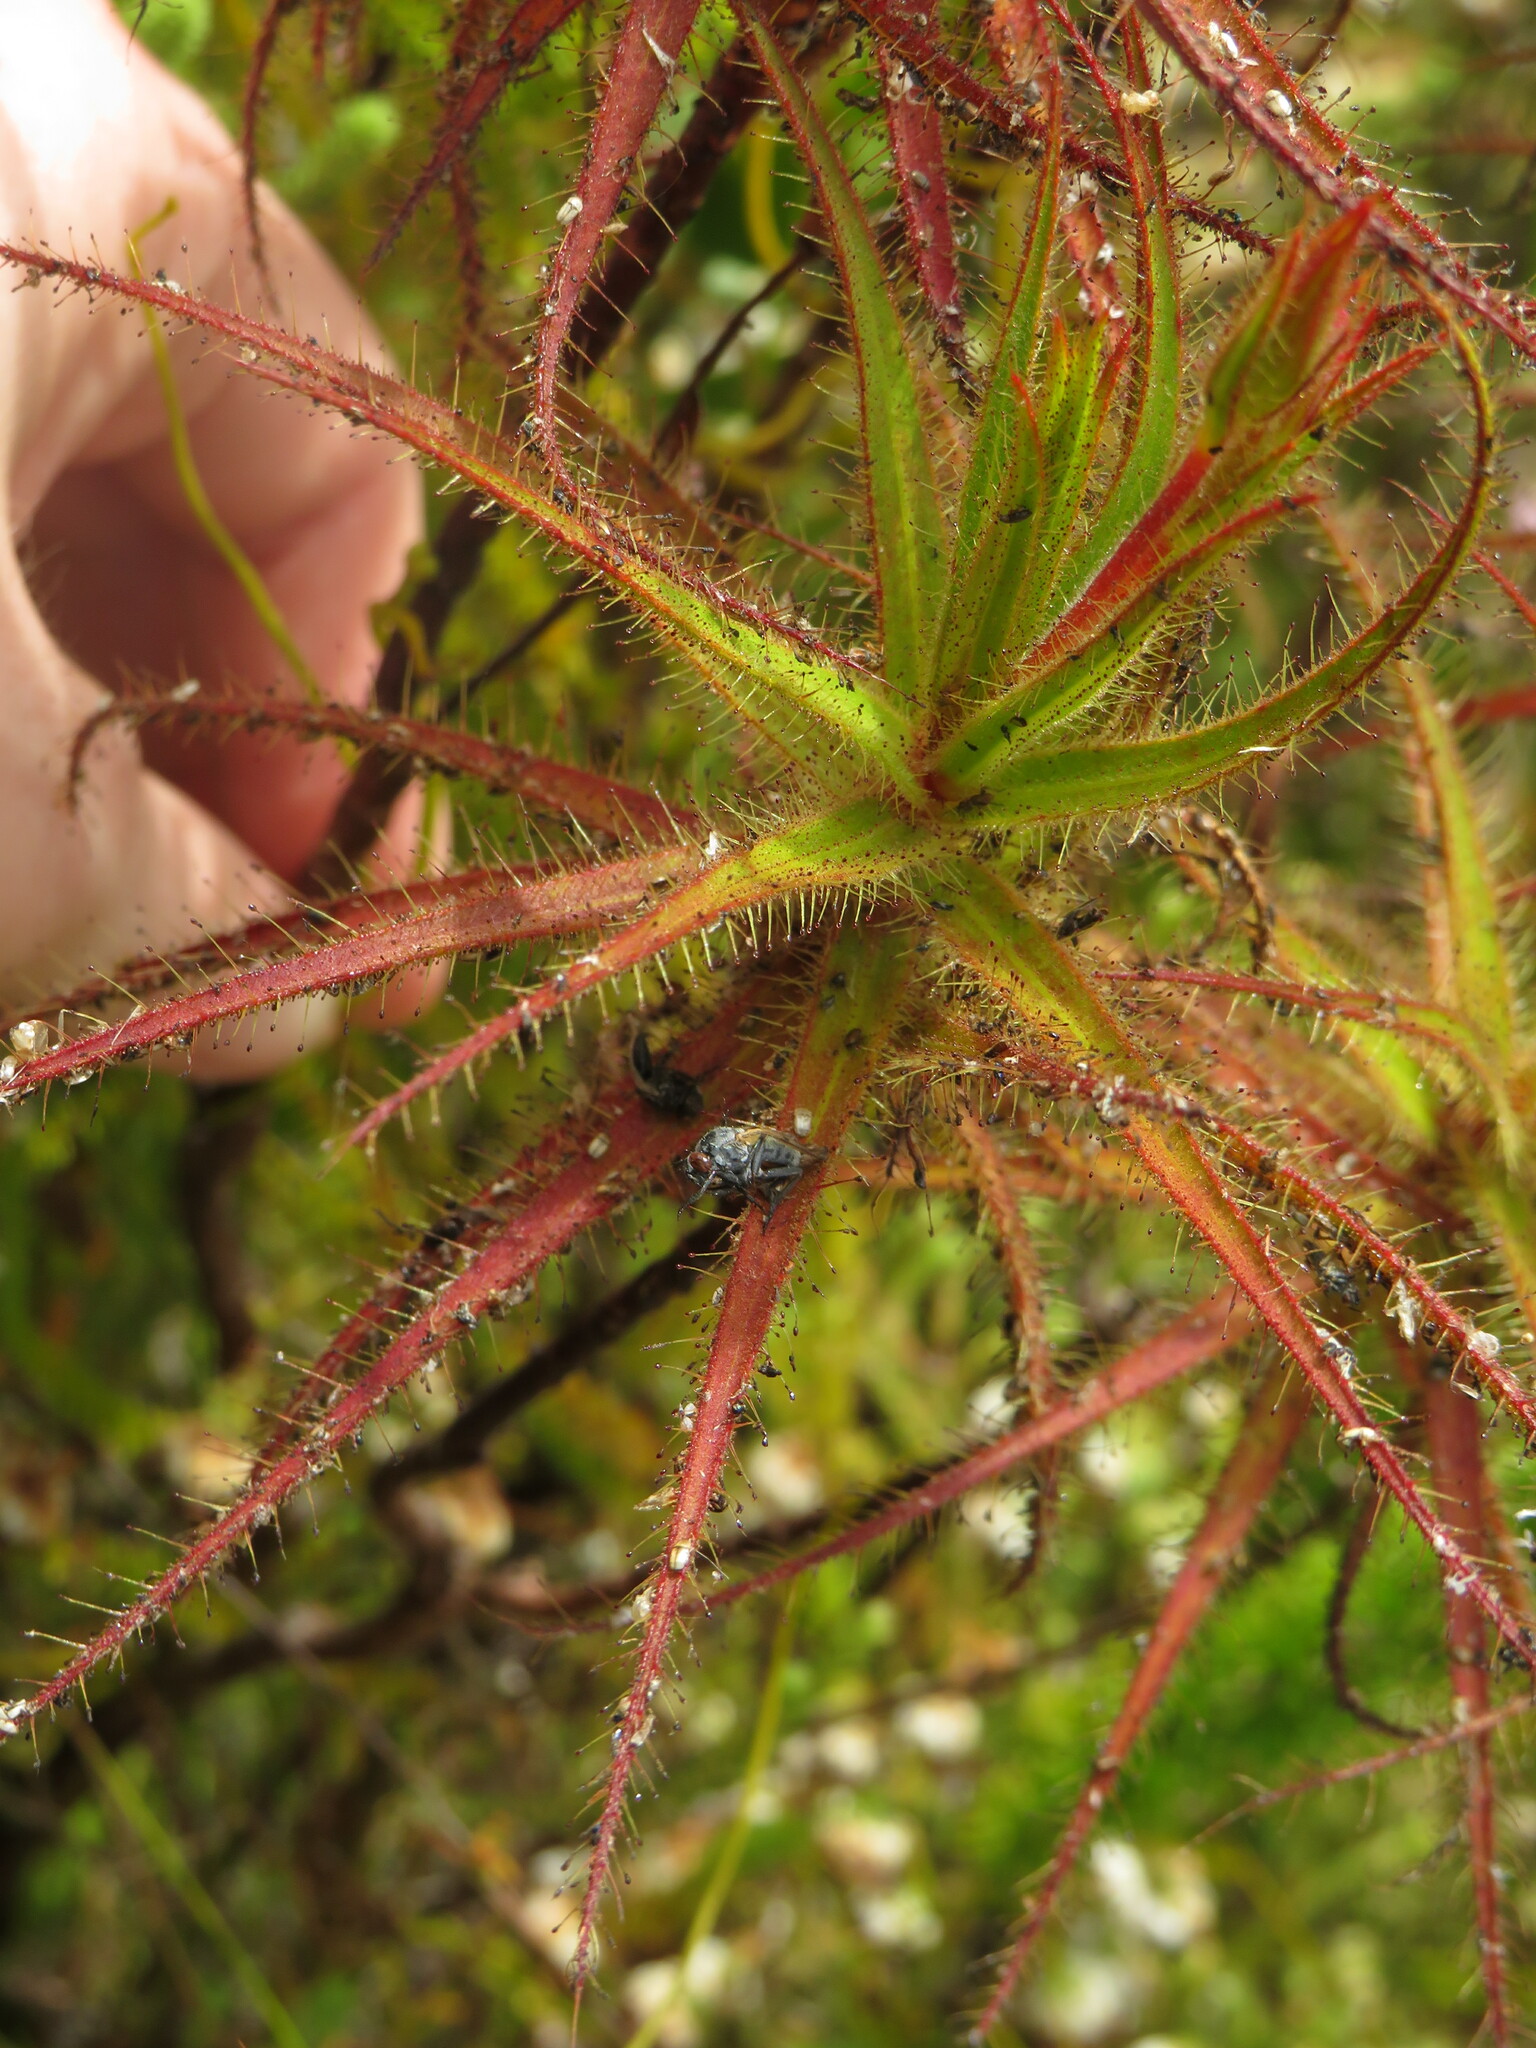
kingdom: Animalia
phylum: Arthropoda
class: Insecta
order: Coleoptera
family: Oedemeridae
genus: Melananthia
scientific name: Melananthia
